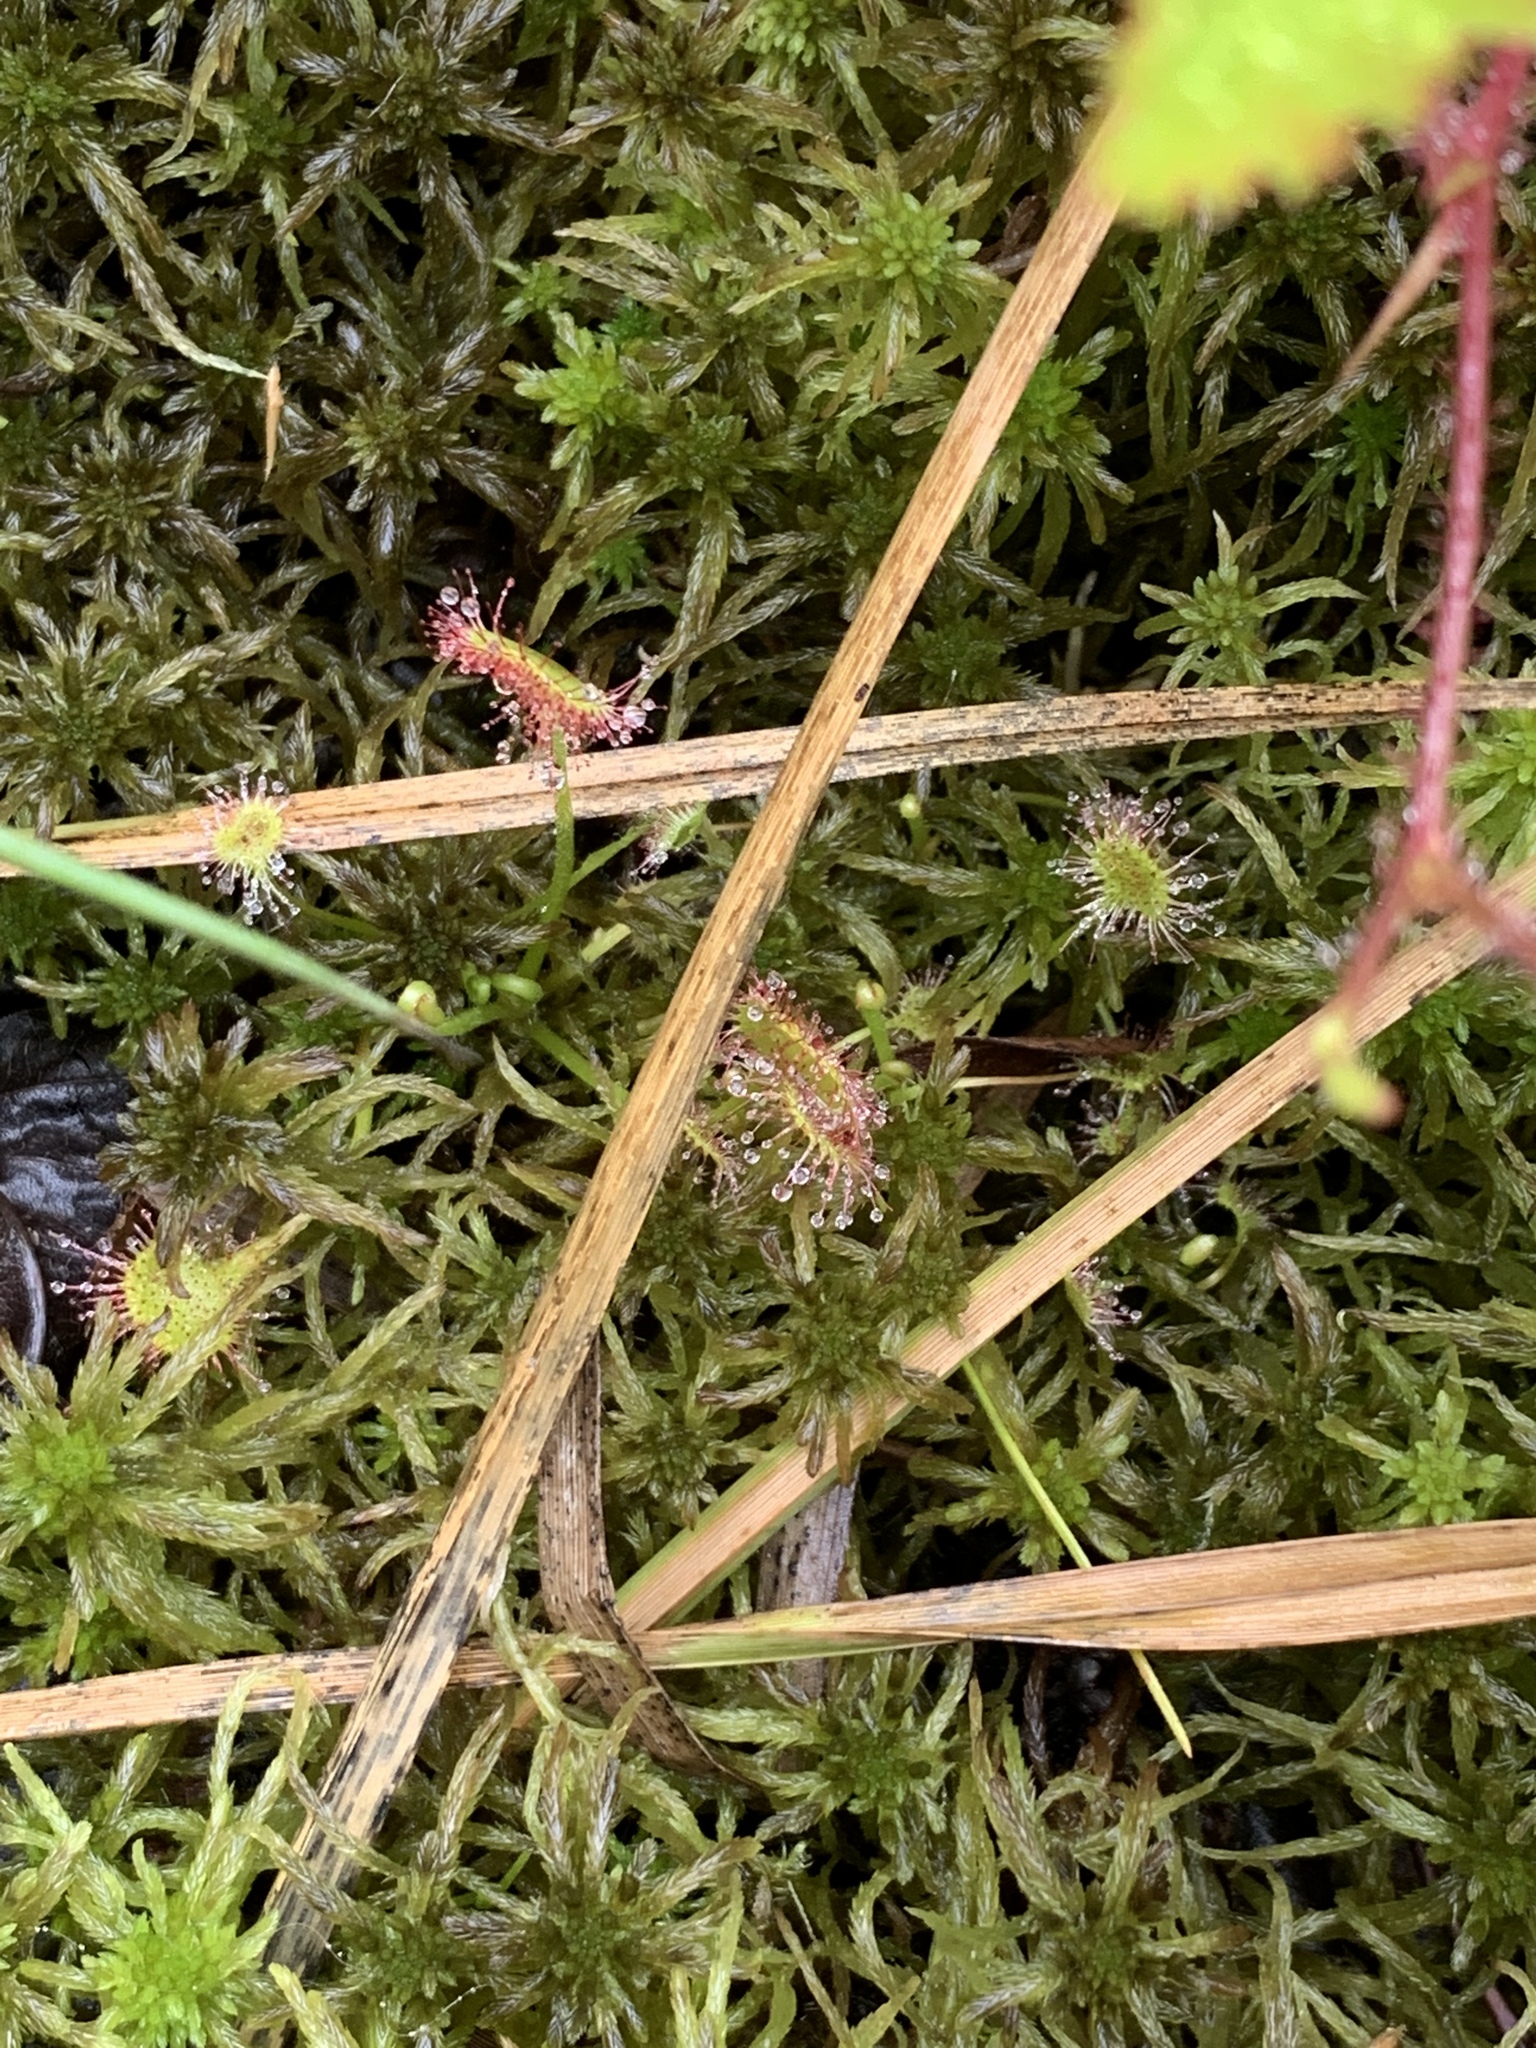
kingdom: Plantae
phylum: Tracheophyta
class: Magnoliopsida
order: Caryophyllales
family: Droseraceae
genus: Drosera
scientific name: Drosera rotundifolia
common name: Round-leaved sundew
